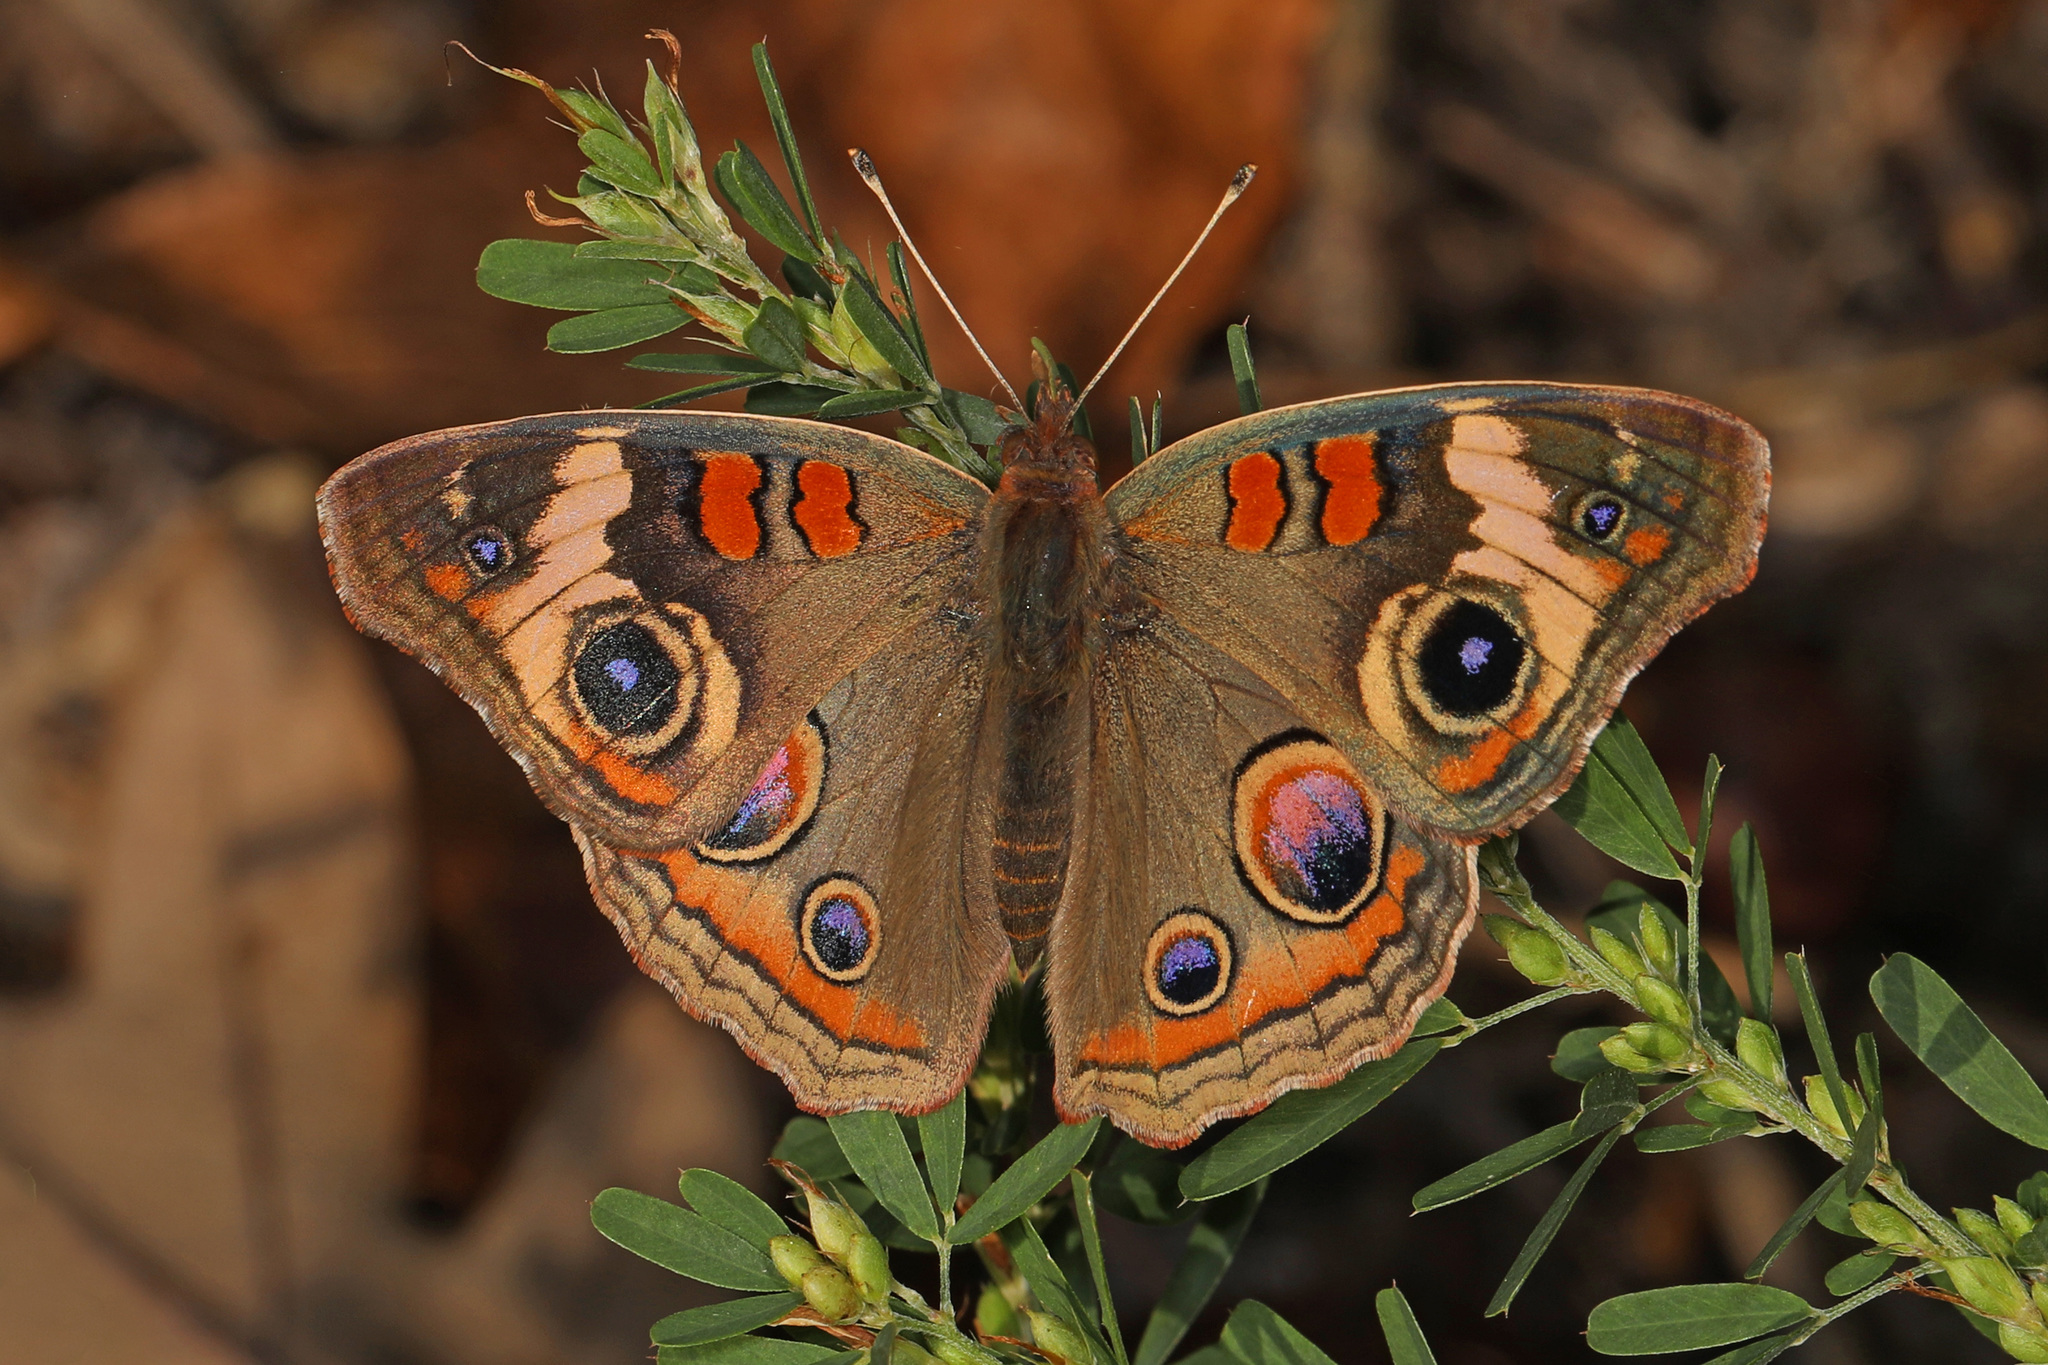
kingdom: Animalia
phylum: Arthropoda
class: Insecta
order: Lepidoptera
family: Nymphalidae
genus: Junonia
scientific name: Junonia coenia
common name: Common buckeye
